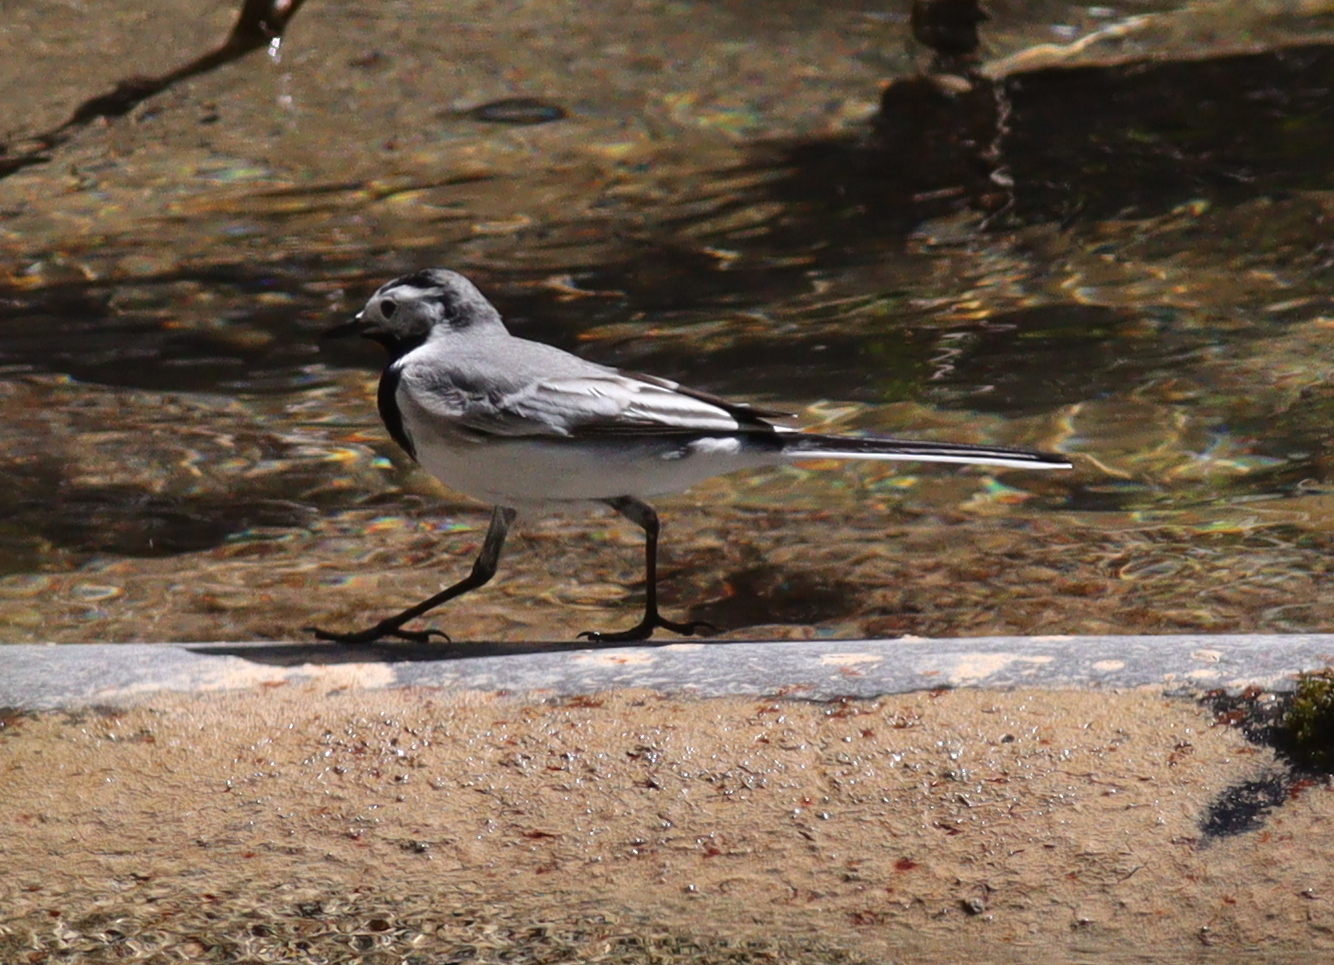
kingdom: Animalia
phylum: Chordata
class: Aves
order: Passeriformes
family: Motacillidae
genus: Motacilla
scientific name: Motacilla alba
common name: White wagtail
